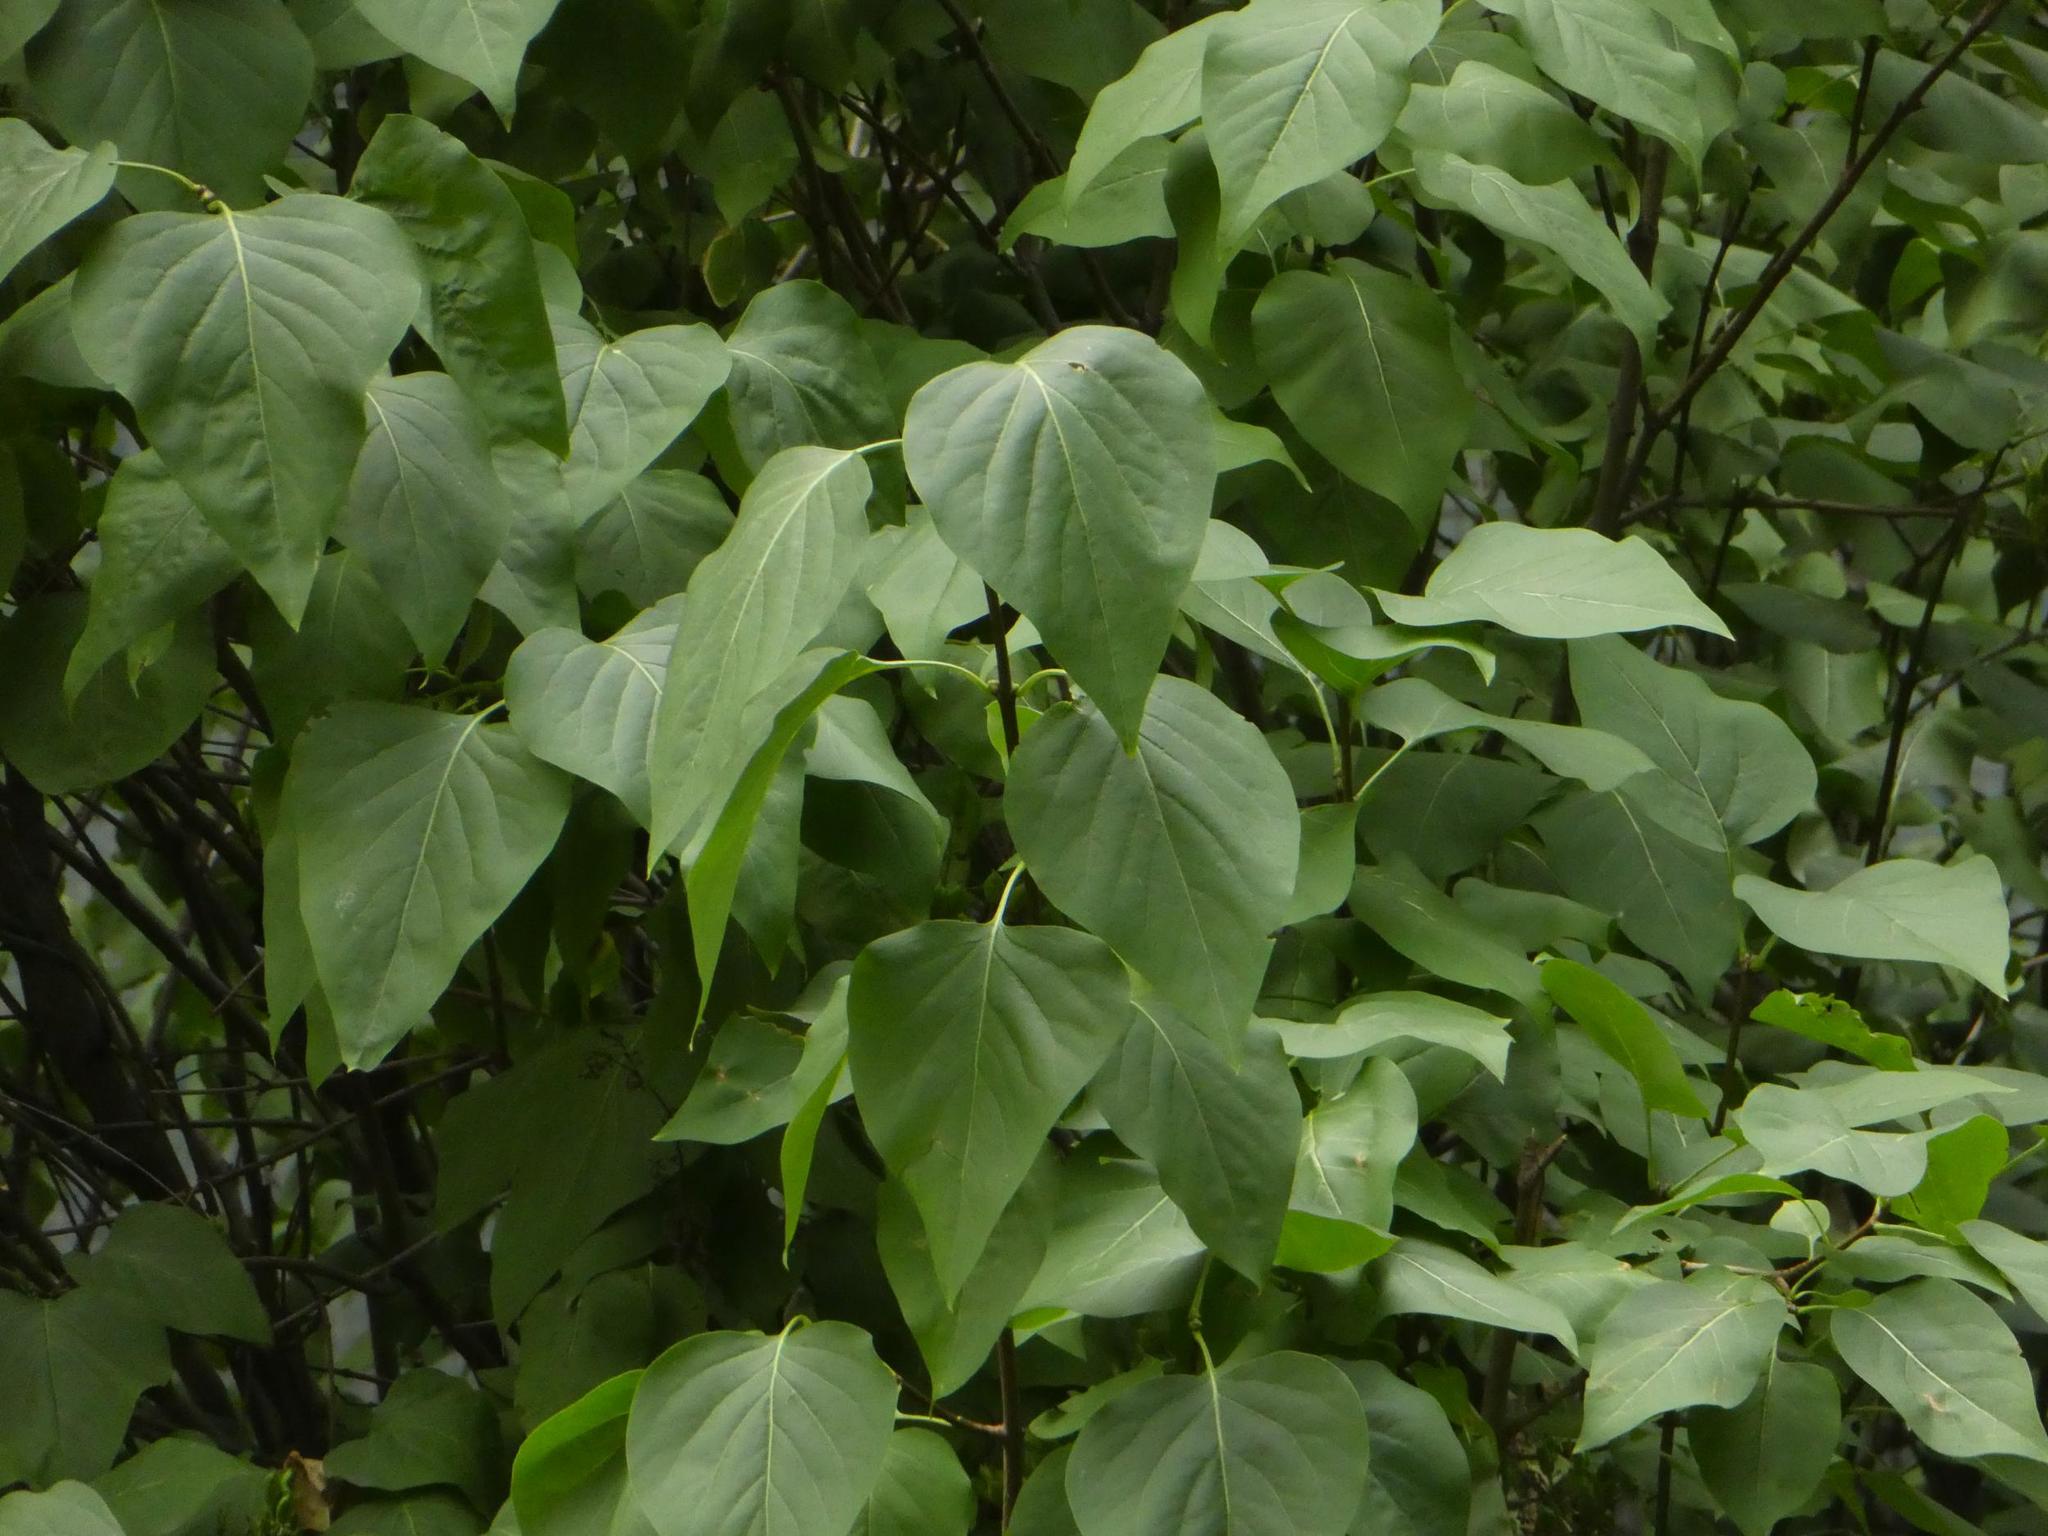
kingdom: Plantae
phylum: Tracheophyta
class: Magnoliopsida
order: Lamiales
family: Oleaceae
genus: Syringa
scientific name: Syringa vulgaris
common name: Common lilac
